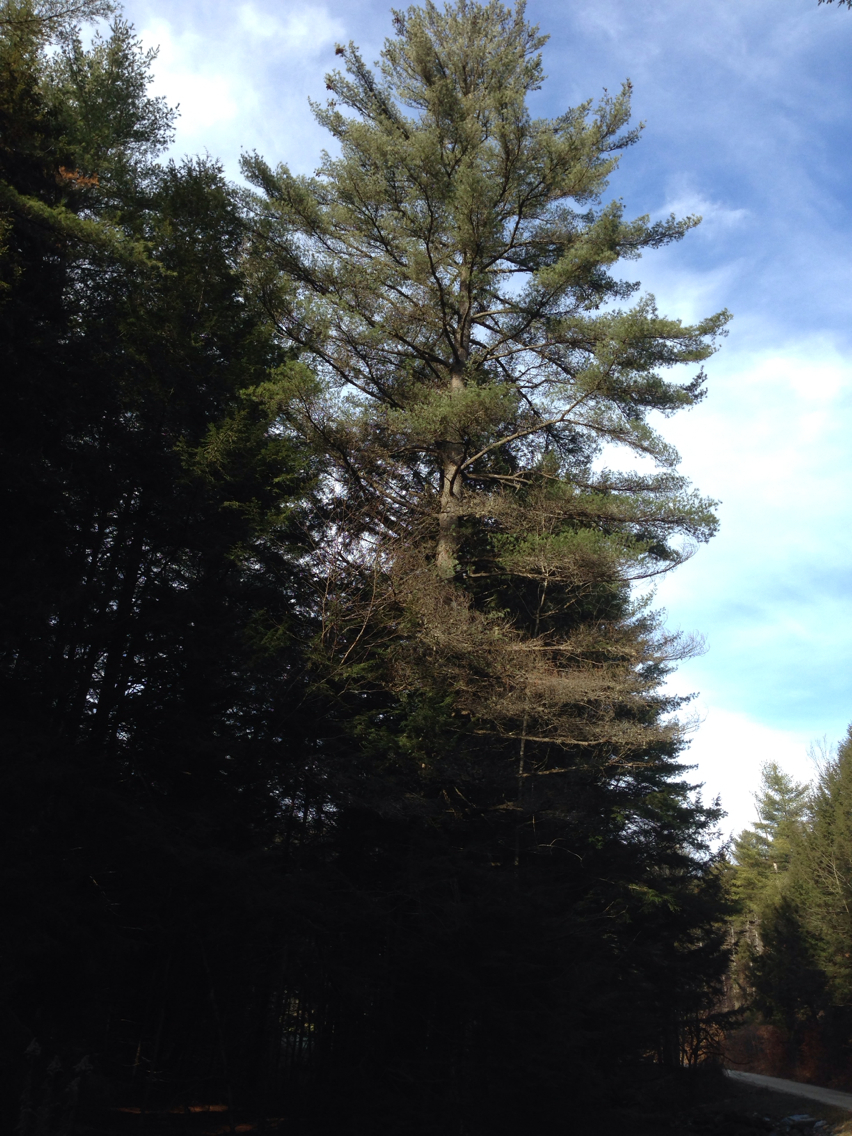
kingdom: Plantae
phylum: Tracheophyta
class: Pinopsida
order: Pinales
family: Pinaceae
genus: Pinus
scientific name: Pinus strobus
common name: Weymouth pine
